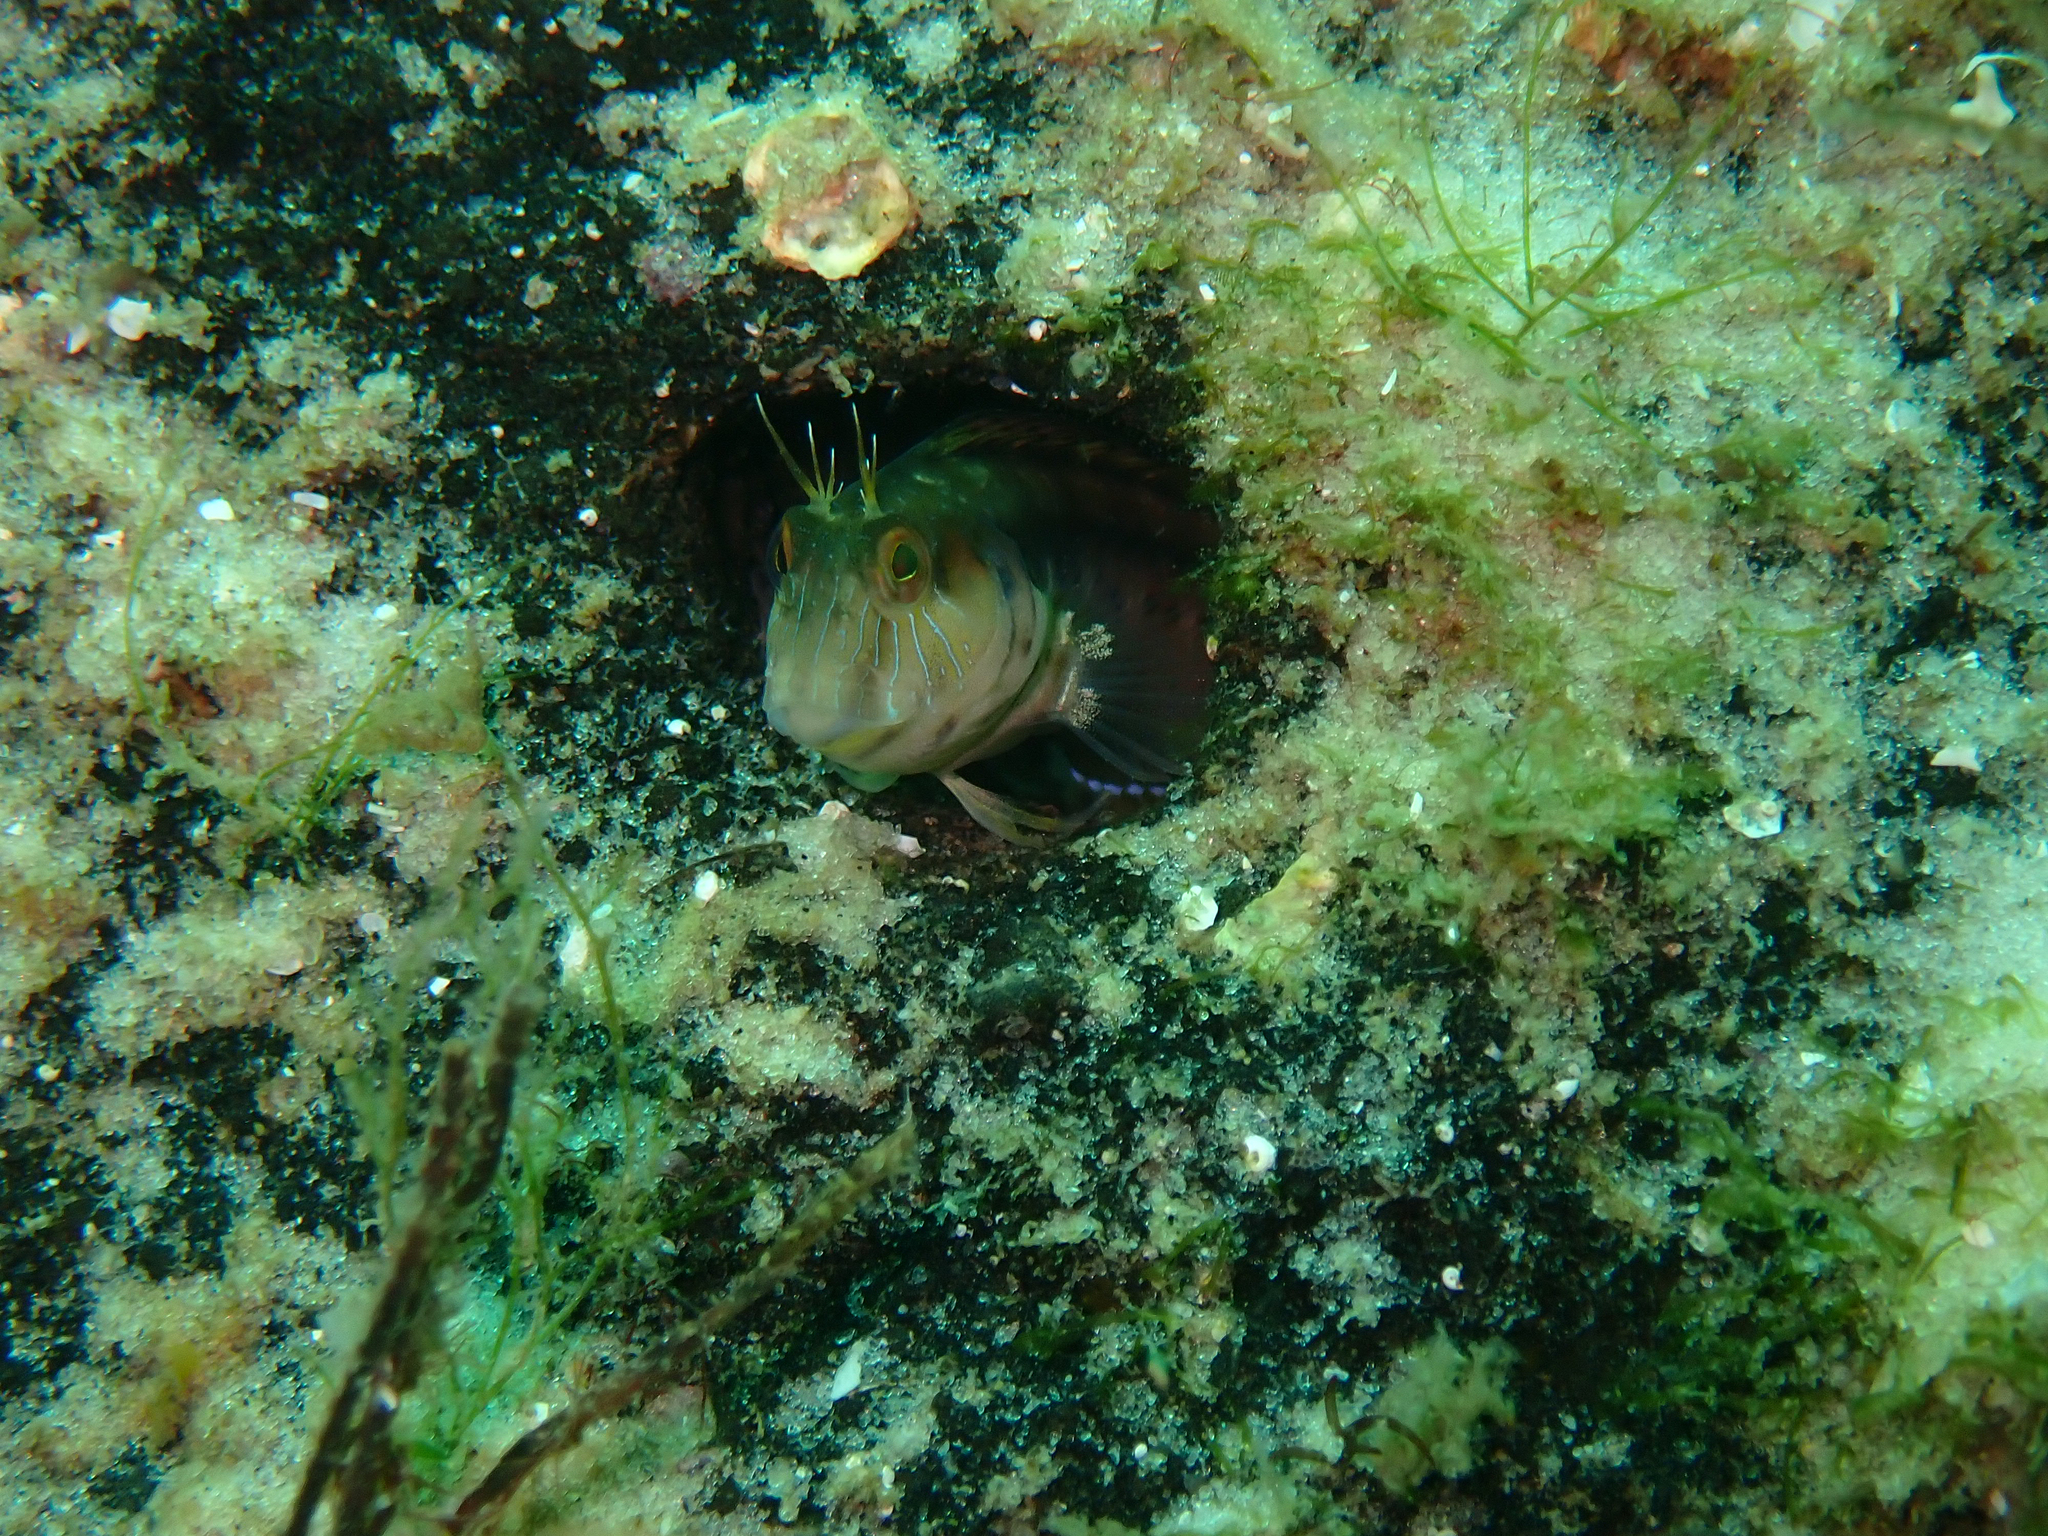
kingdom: Animalia
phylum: Chordata
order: Perciformes
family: Blenniidae
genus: Parablennius
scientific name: Parablennius marmoreus
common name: Seaweed blenny
